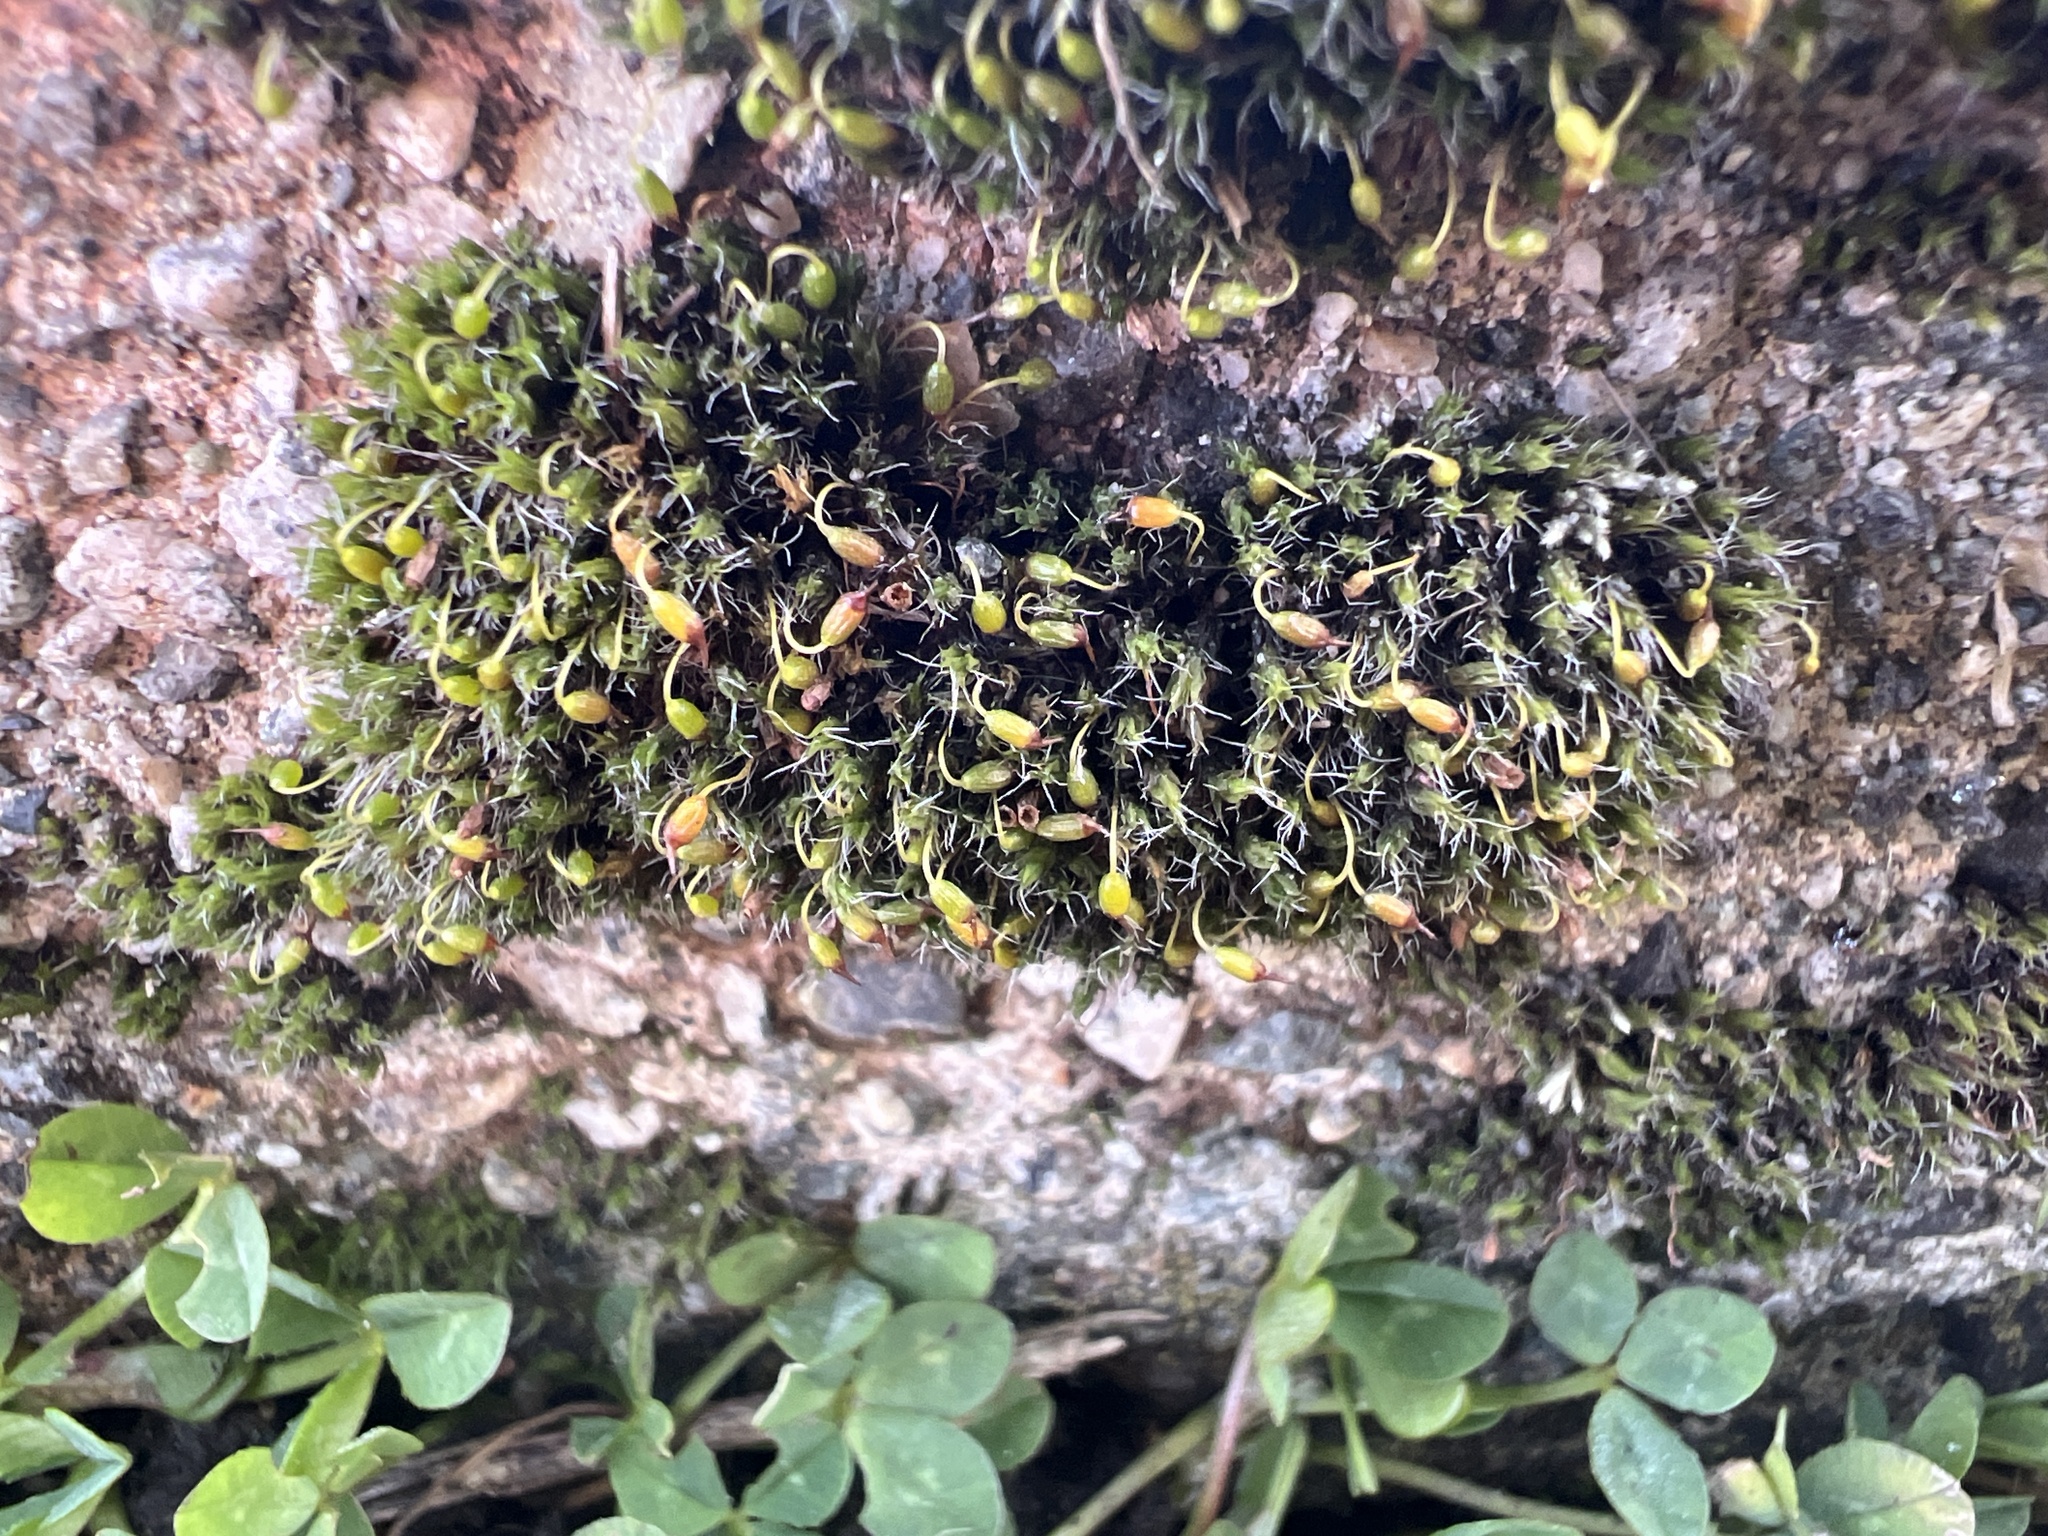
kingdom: Plantae
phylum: Bryophyta
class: Bryopsida
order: Grimmiales
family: Grimmiaceae
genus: Grimmia
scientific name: Grimmia pulvinata
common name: Grey-cushioned grimmia
